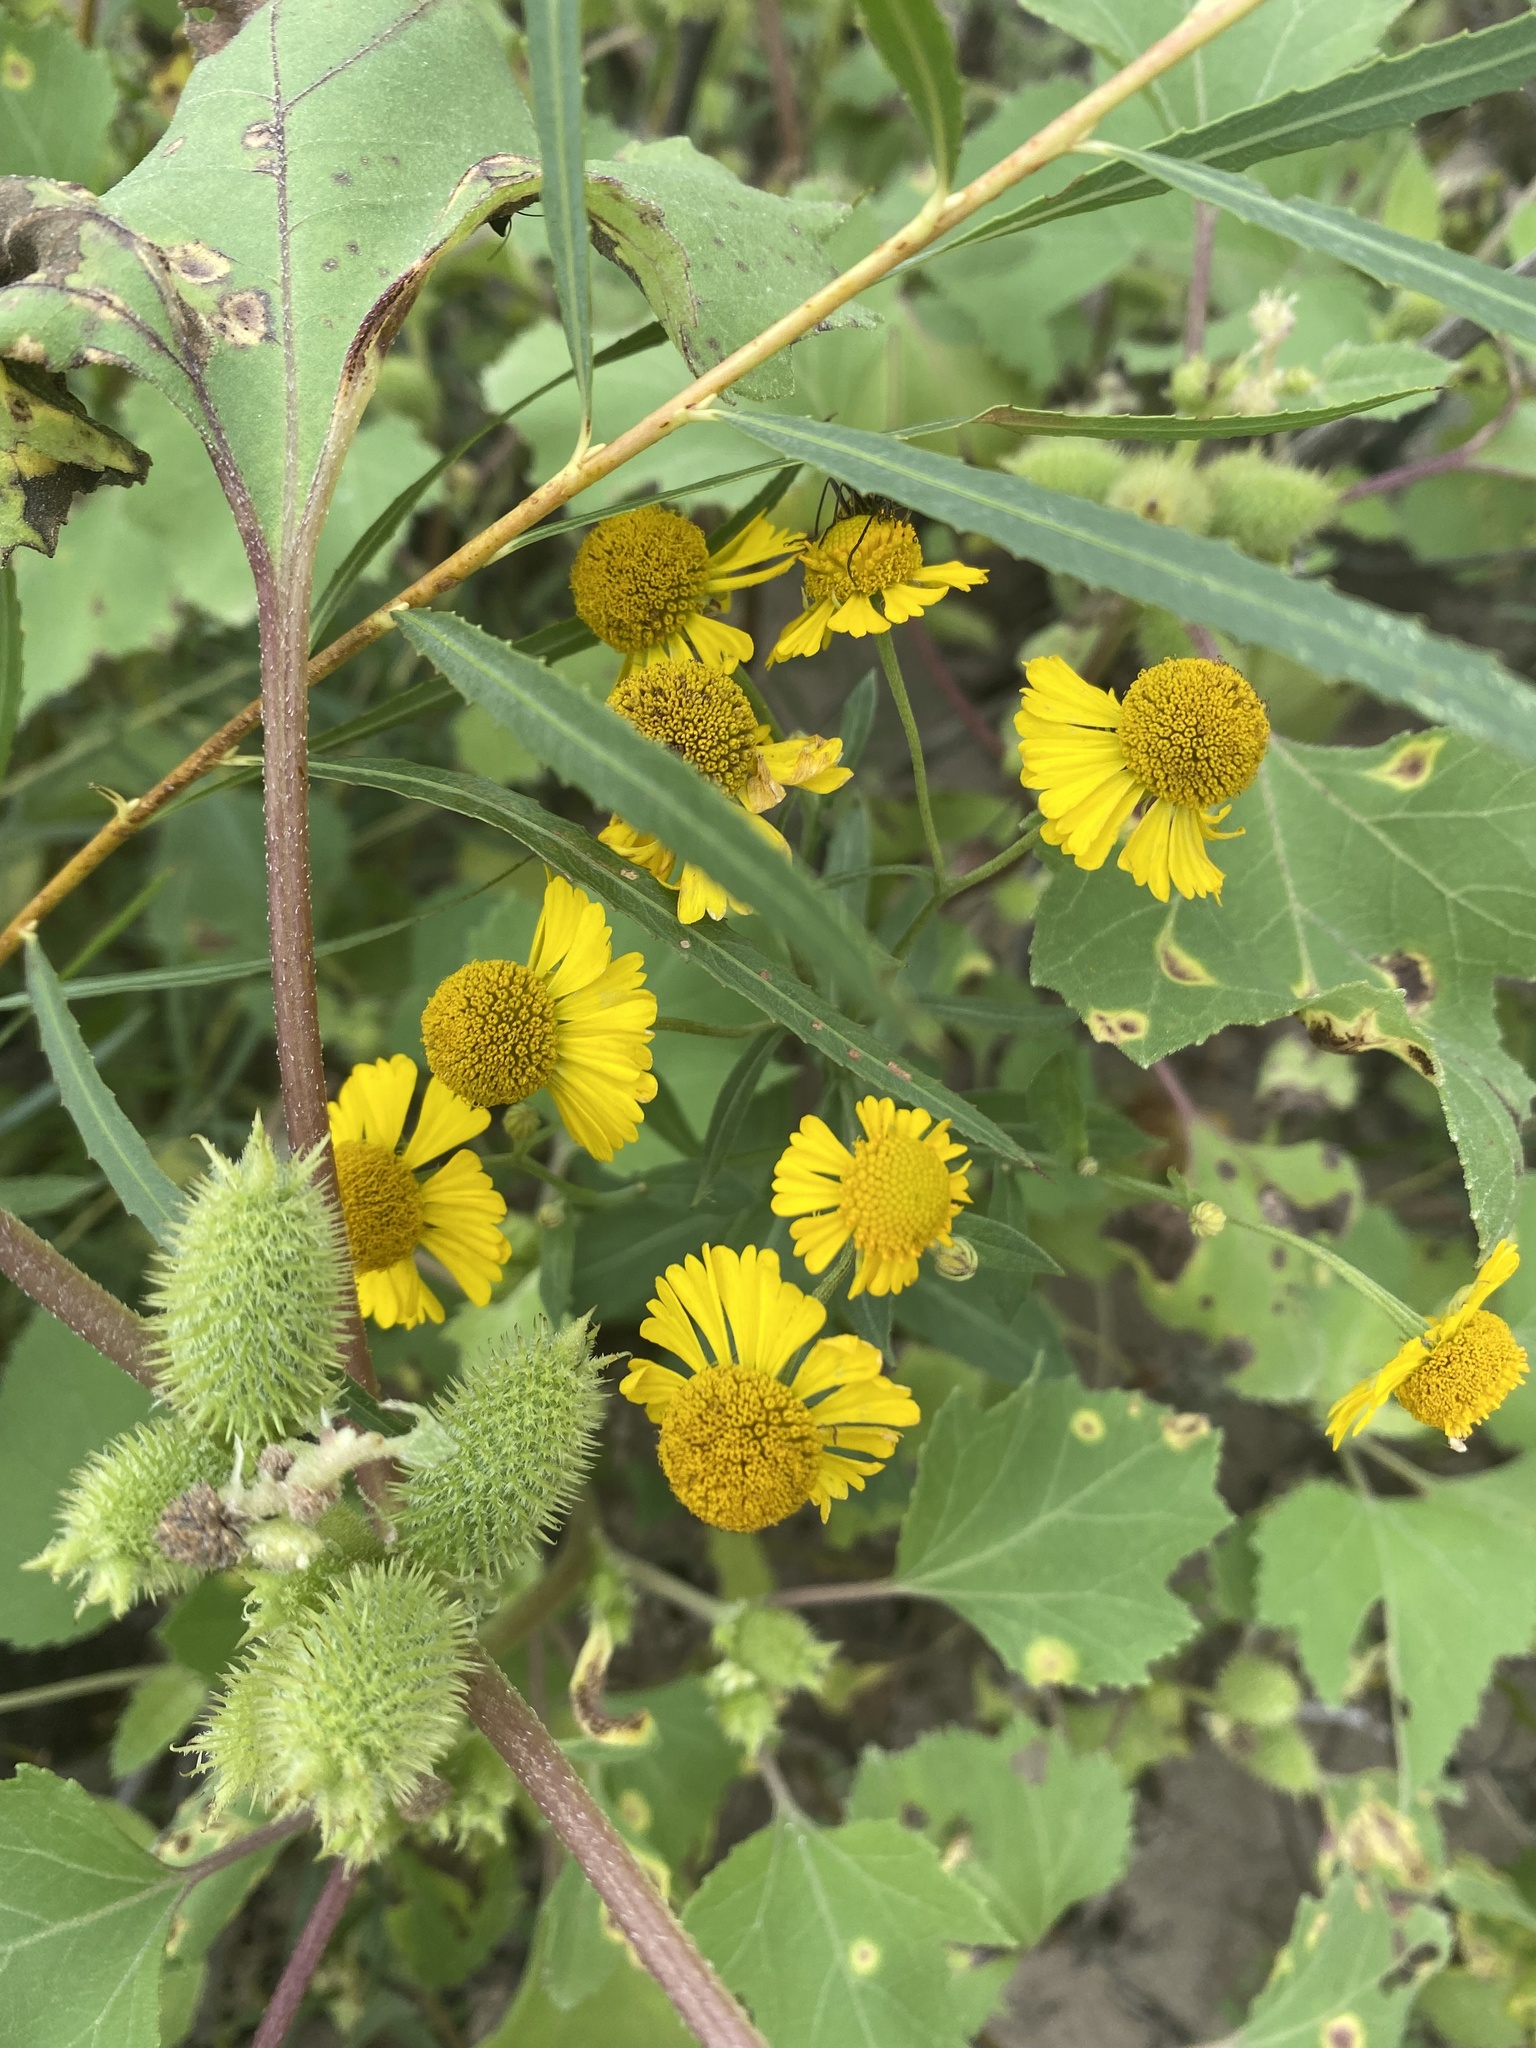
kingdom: Plantae
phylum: Tracheophyta
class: Magnoliopsida
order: Asterales
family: Asteraceae
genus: Helenium
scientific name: Helenium autumnale
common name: Sneezeweed
